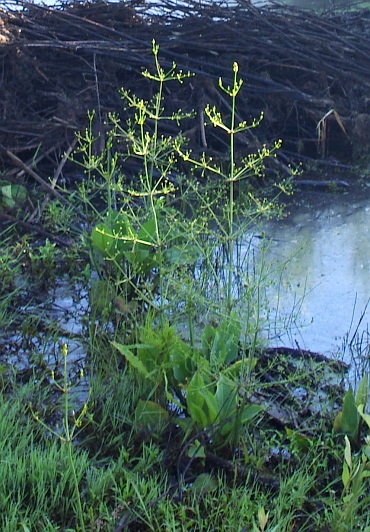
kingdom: Plantae
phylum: Tracheophyta
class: Liliopsida
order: Alismatales
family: Alismataceae
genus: Alisma
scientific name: Alisma plantago-aquatica
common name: Water-plantain
